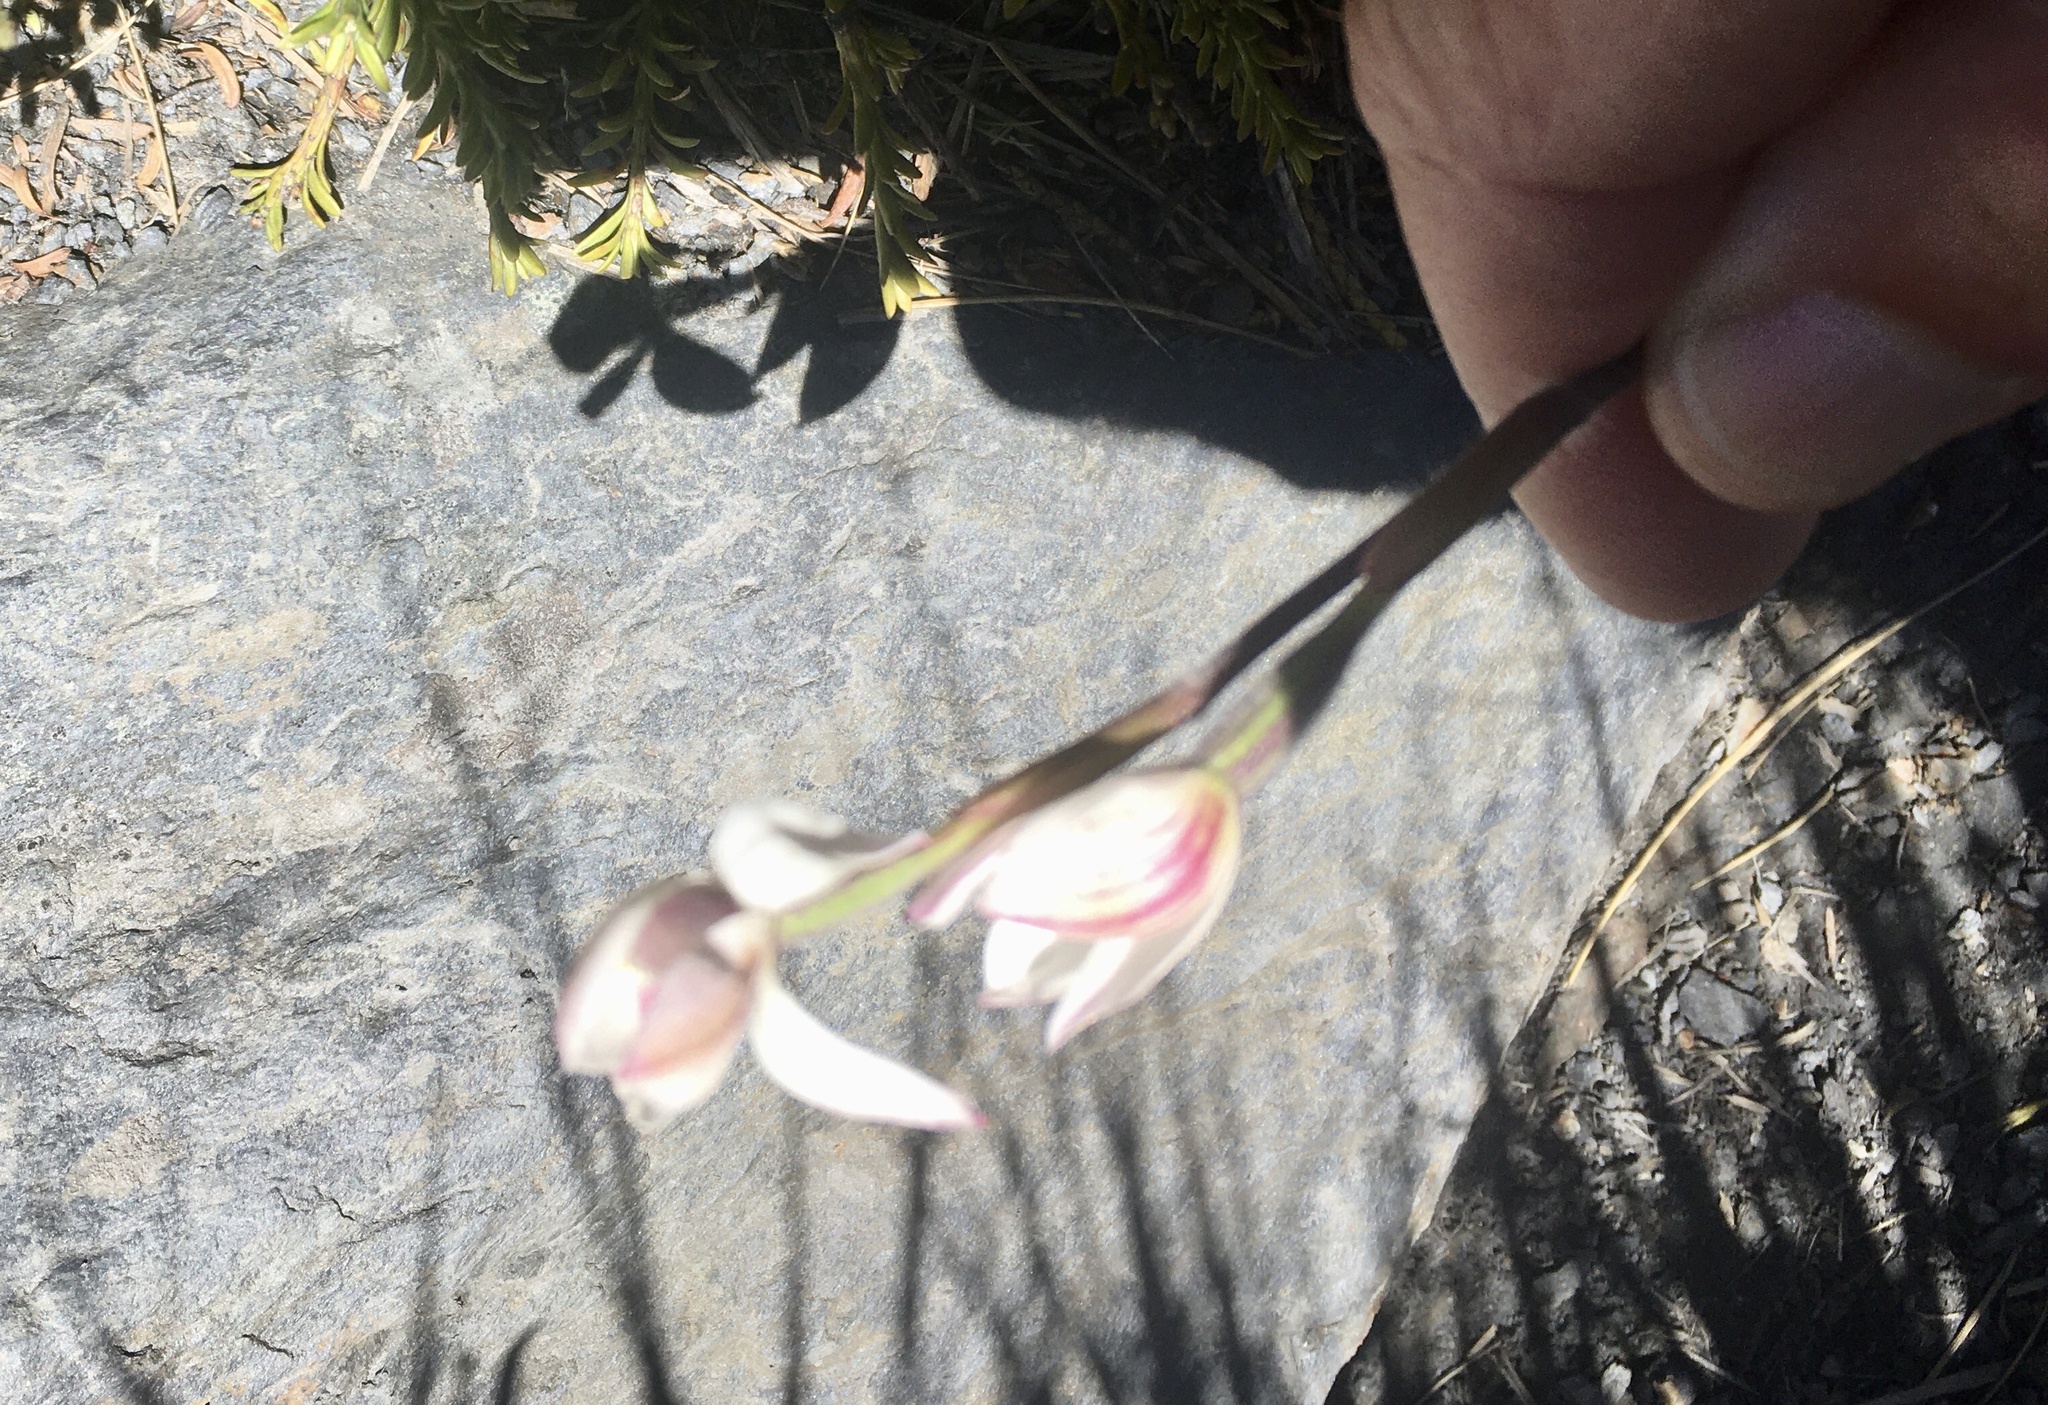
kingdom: Plantae
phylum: Tracheophyta
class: Liliopsida
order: Asparagales
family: Orchidaceae
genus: Caladenia
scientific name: Caladenia lyallii
